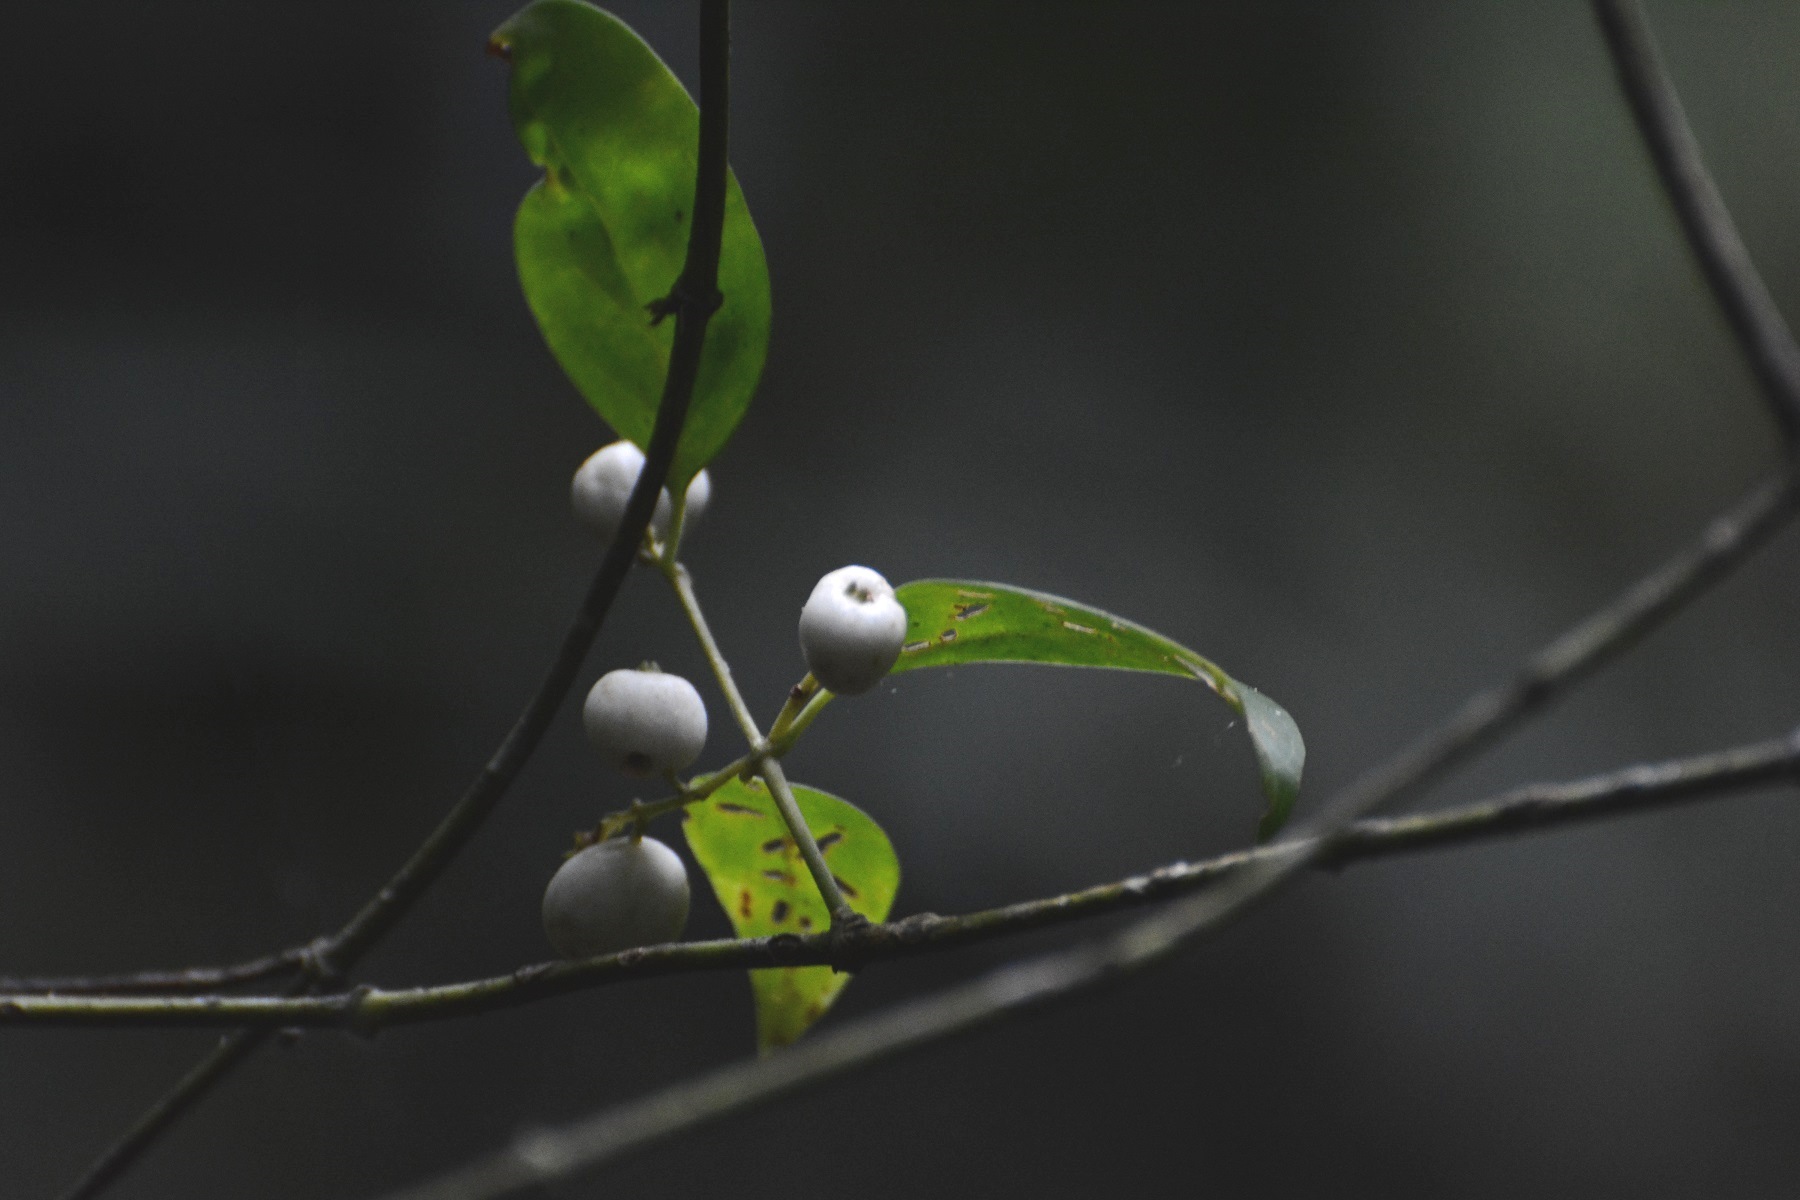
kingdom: Plantae
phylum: Tracheophyta
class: Magnoliopsida
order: Gentianales
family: Rubiaceae
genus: Chiococca
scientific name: Chiococca filipes
